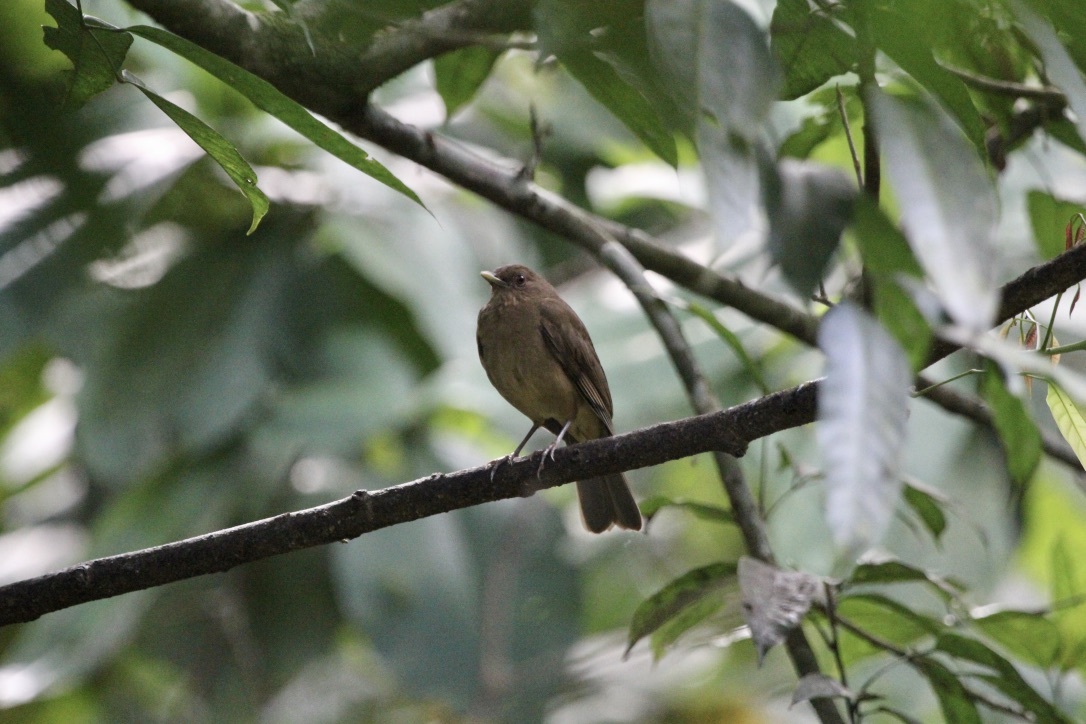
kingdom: Animalia
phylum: Chordata
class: Aves
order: Passeriformes
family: Turdidae
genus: Turdus
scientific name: Turdus grayi
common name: Clay-colored thrush
